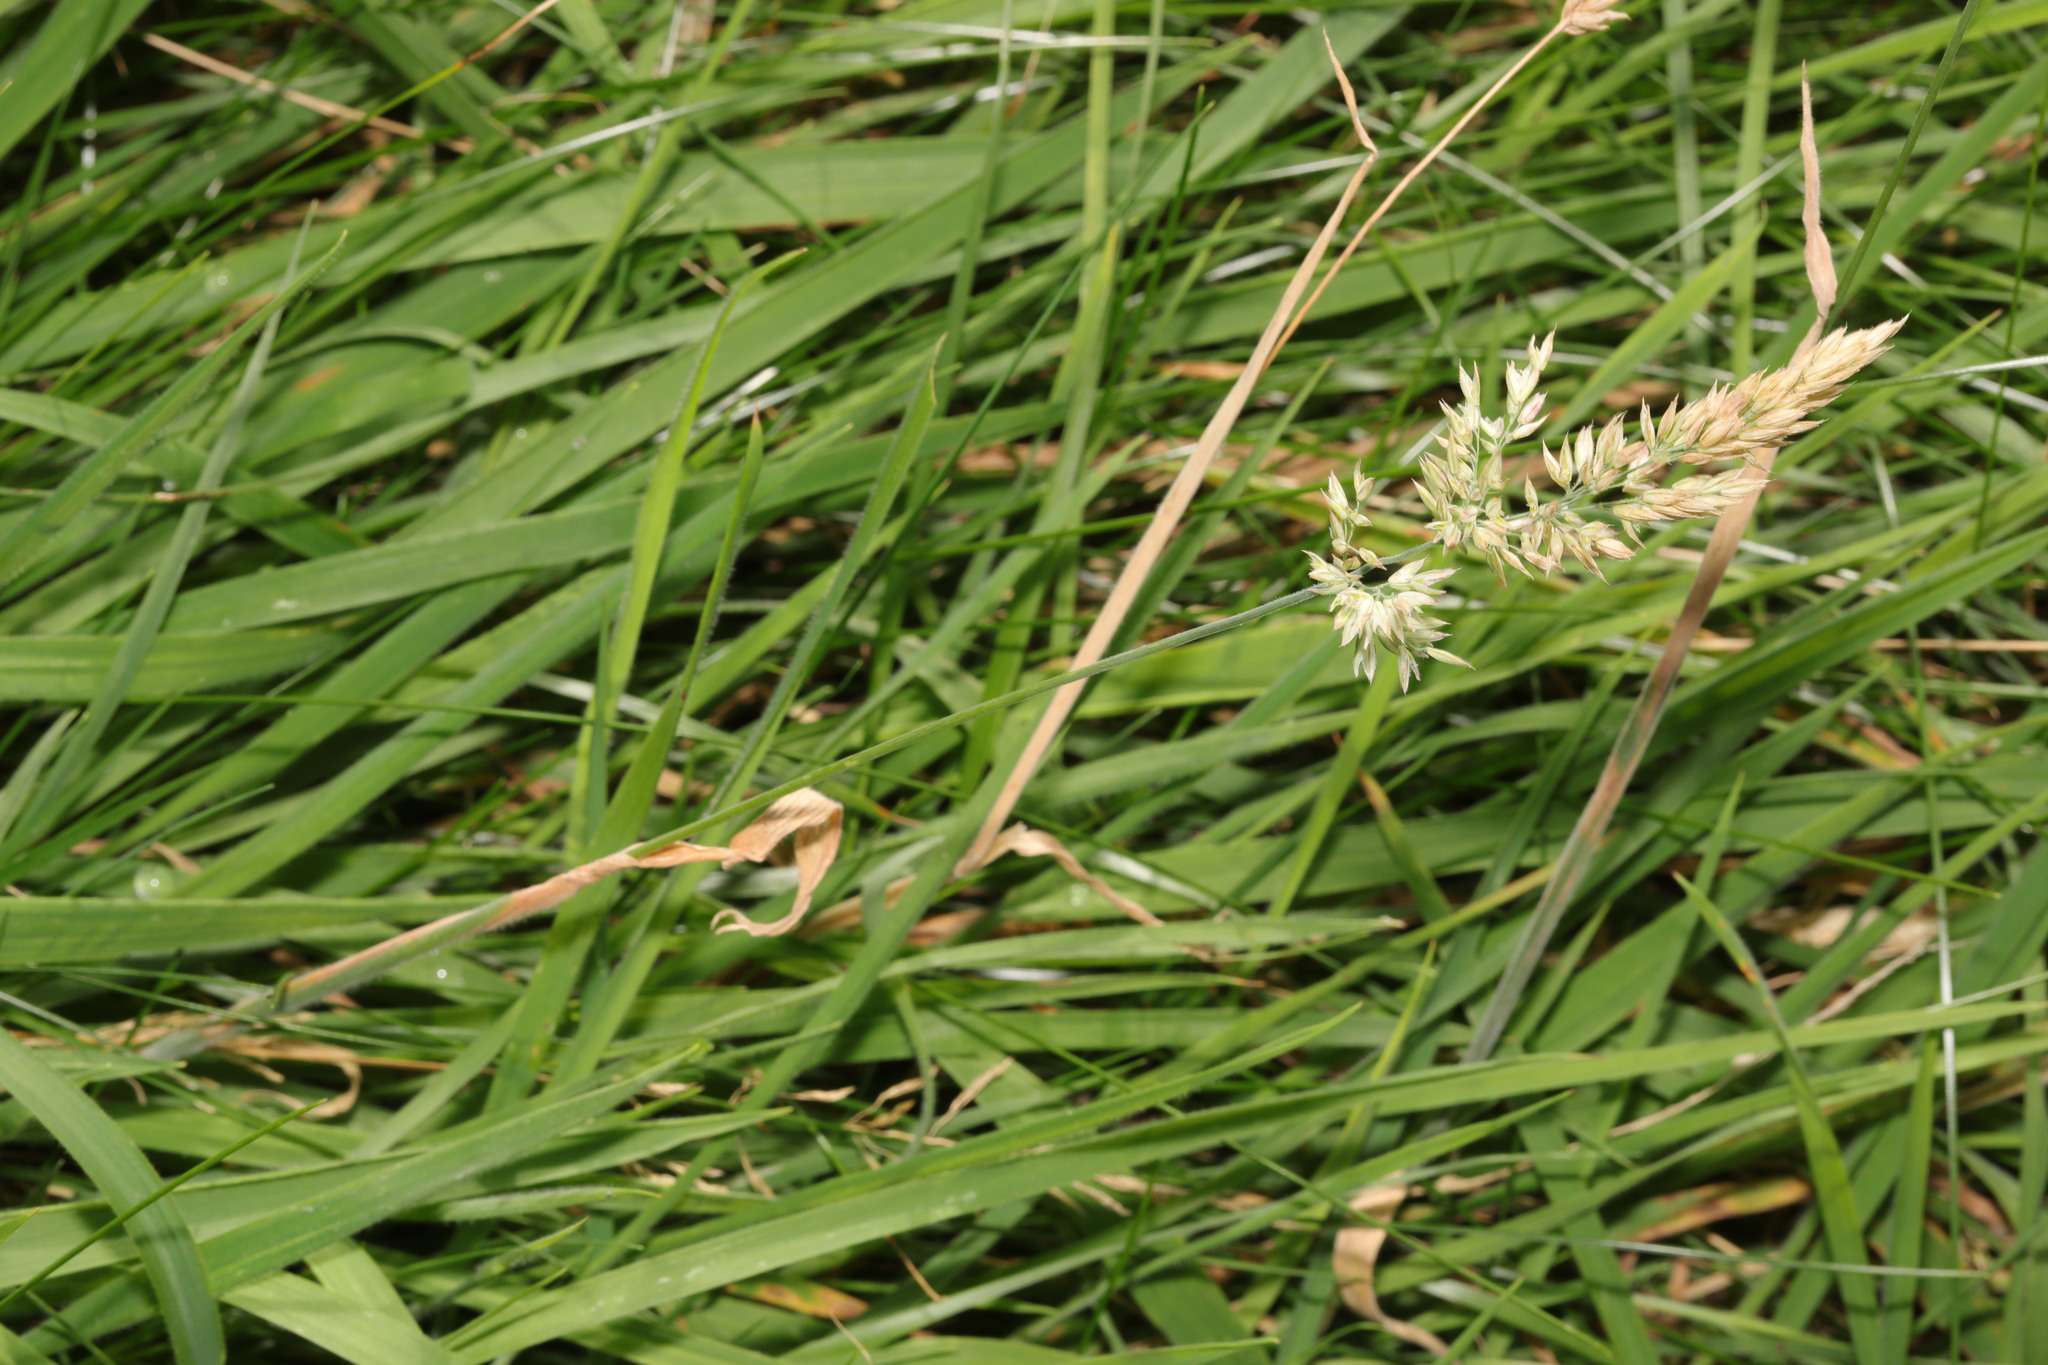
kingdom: Plantae
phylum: Tracheophyta
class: Liliopsida
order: Poales
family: Poaceae
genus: Holcus
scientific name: Holcus lanatus
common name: Yorkshire-fog
